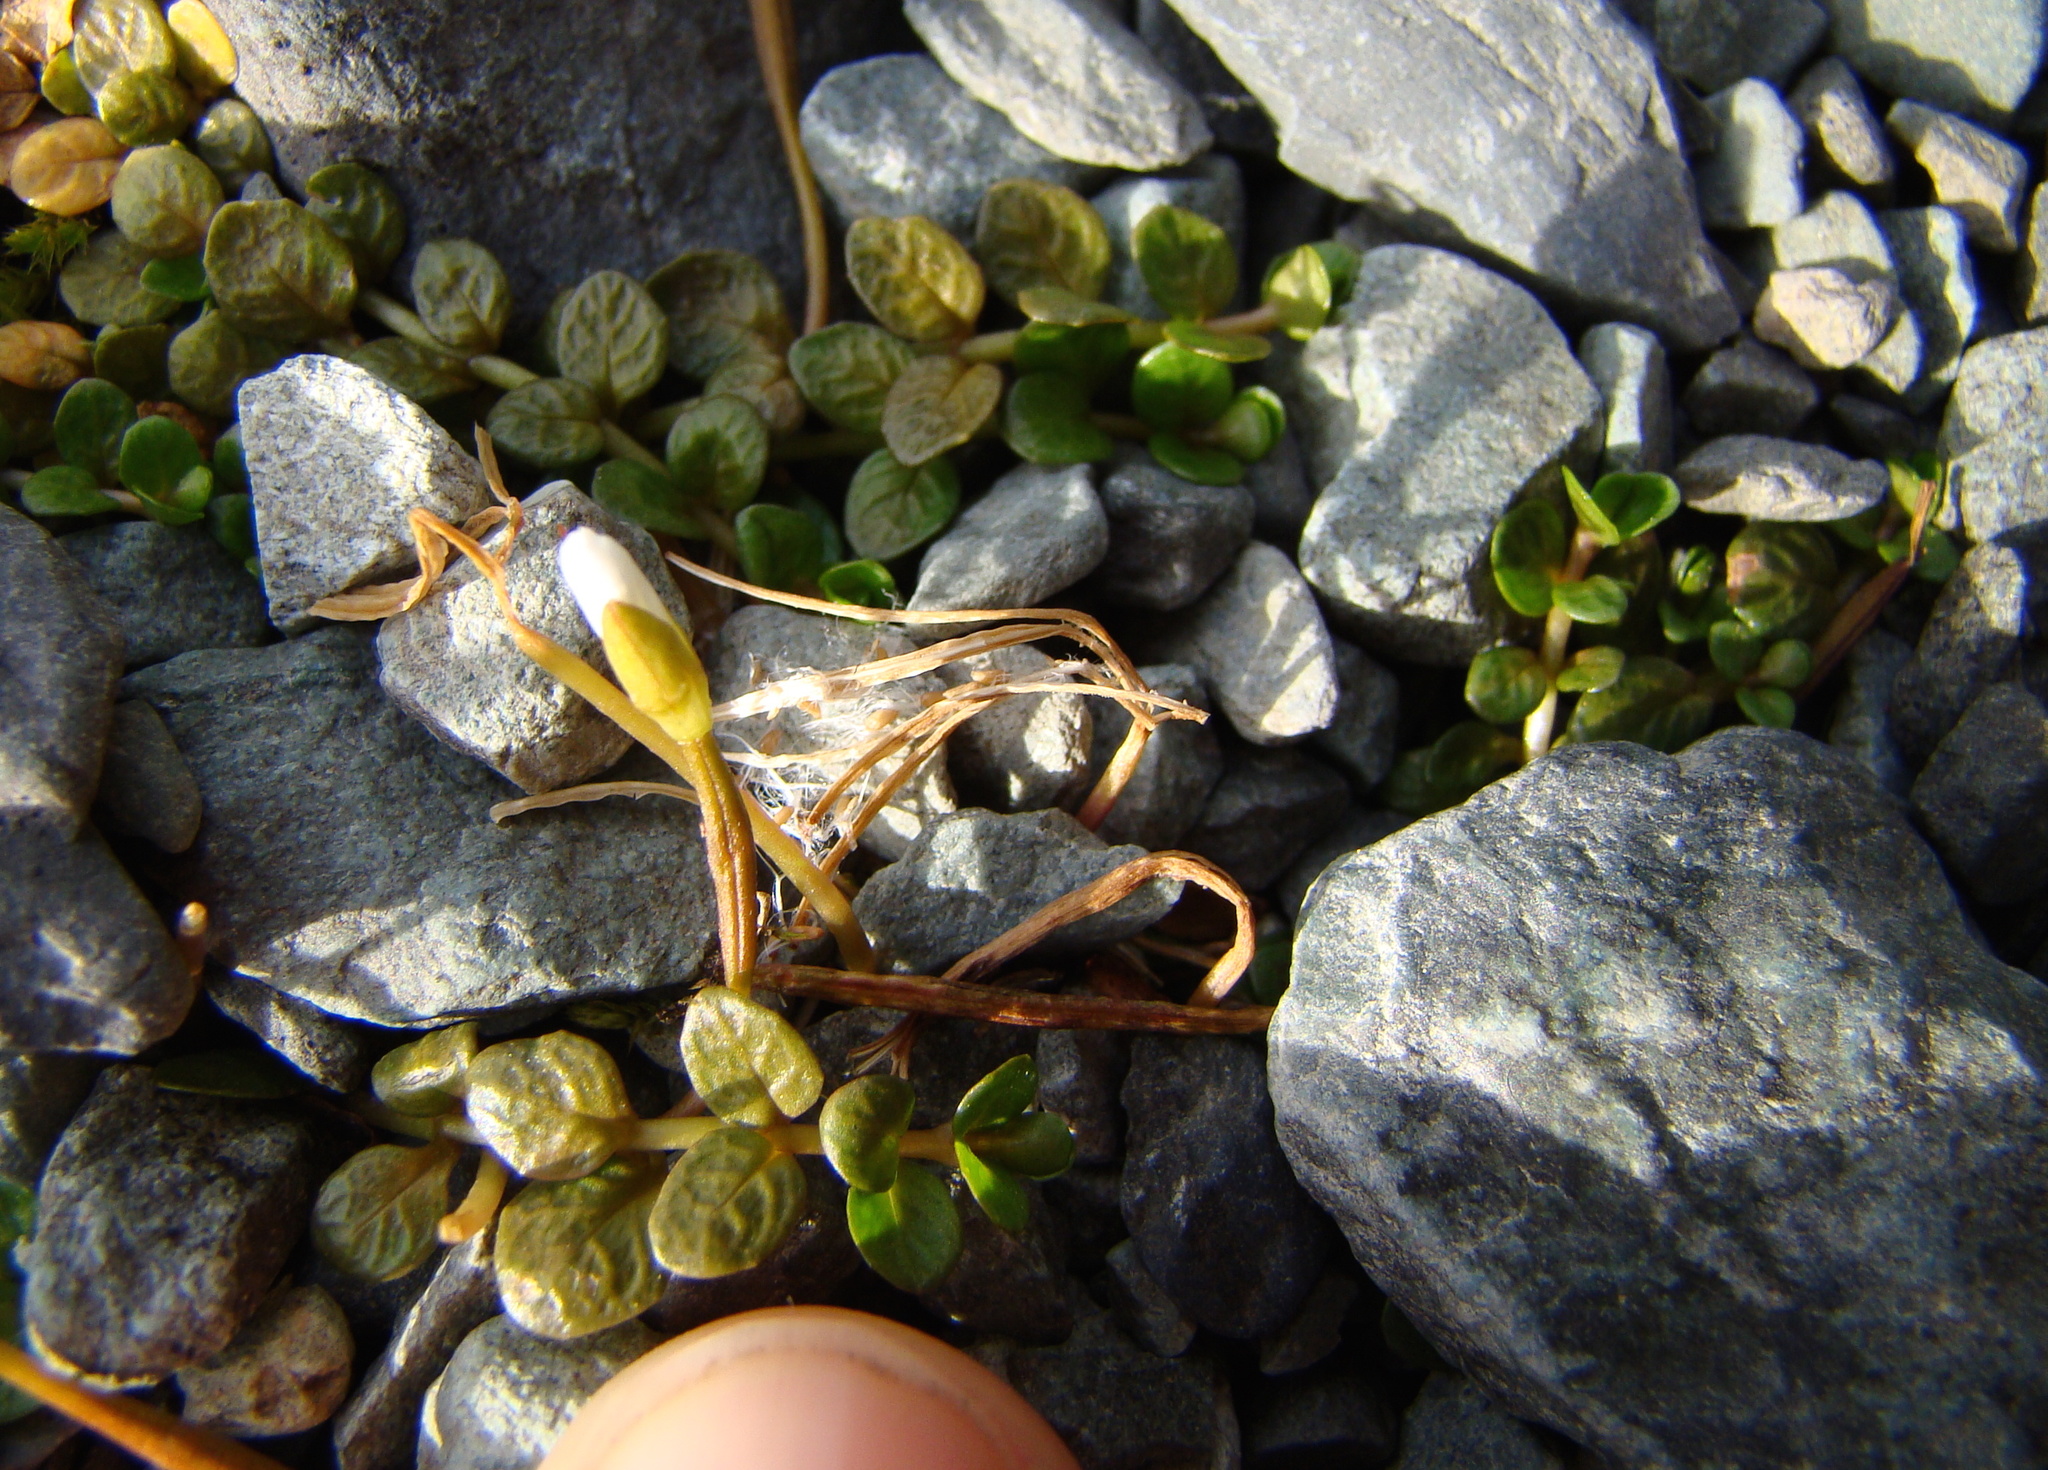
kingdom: Plantae
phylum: Tracheophyta
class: Magnoliopsida
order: Myrtales
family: Onagraceae
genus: Epilobium
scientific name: Epilobium komarovianum
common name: Bronzy willowherb
